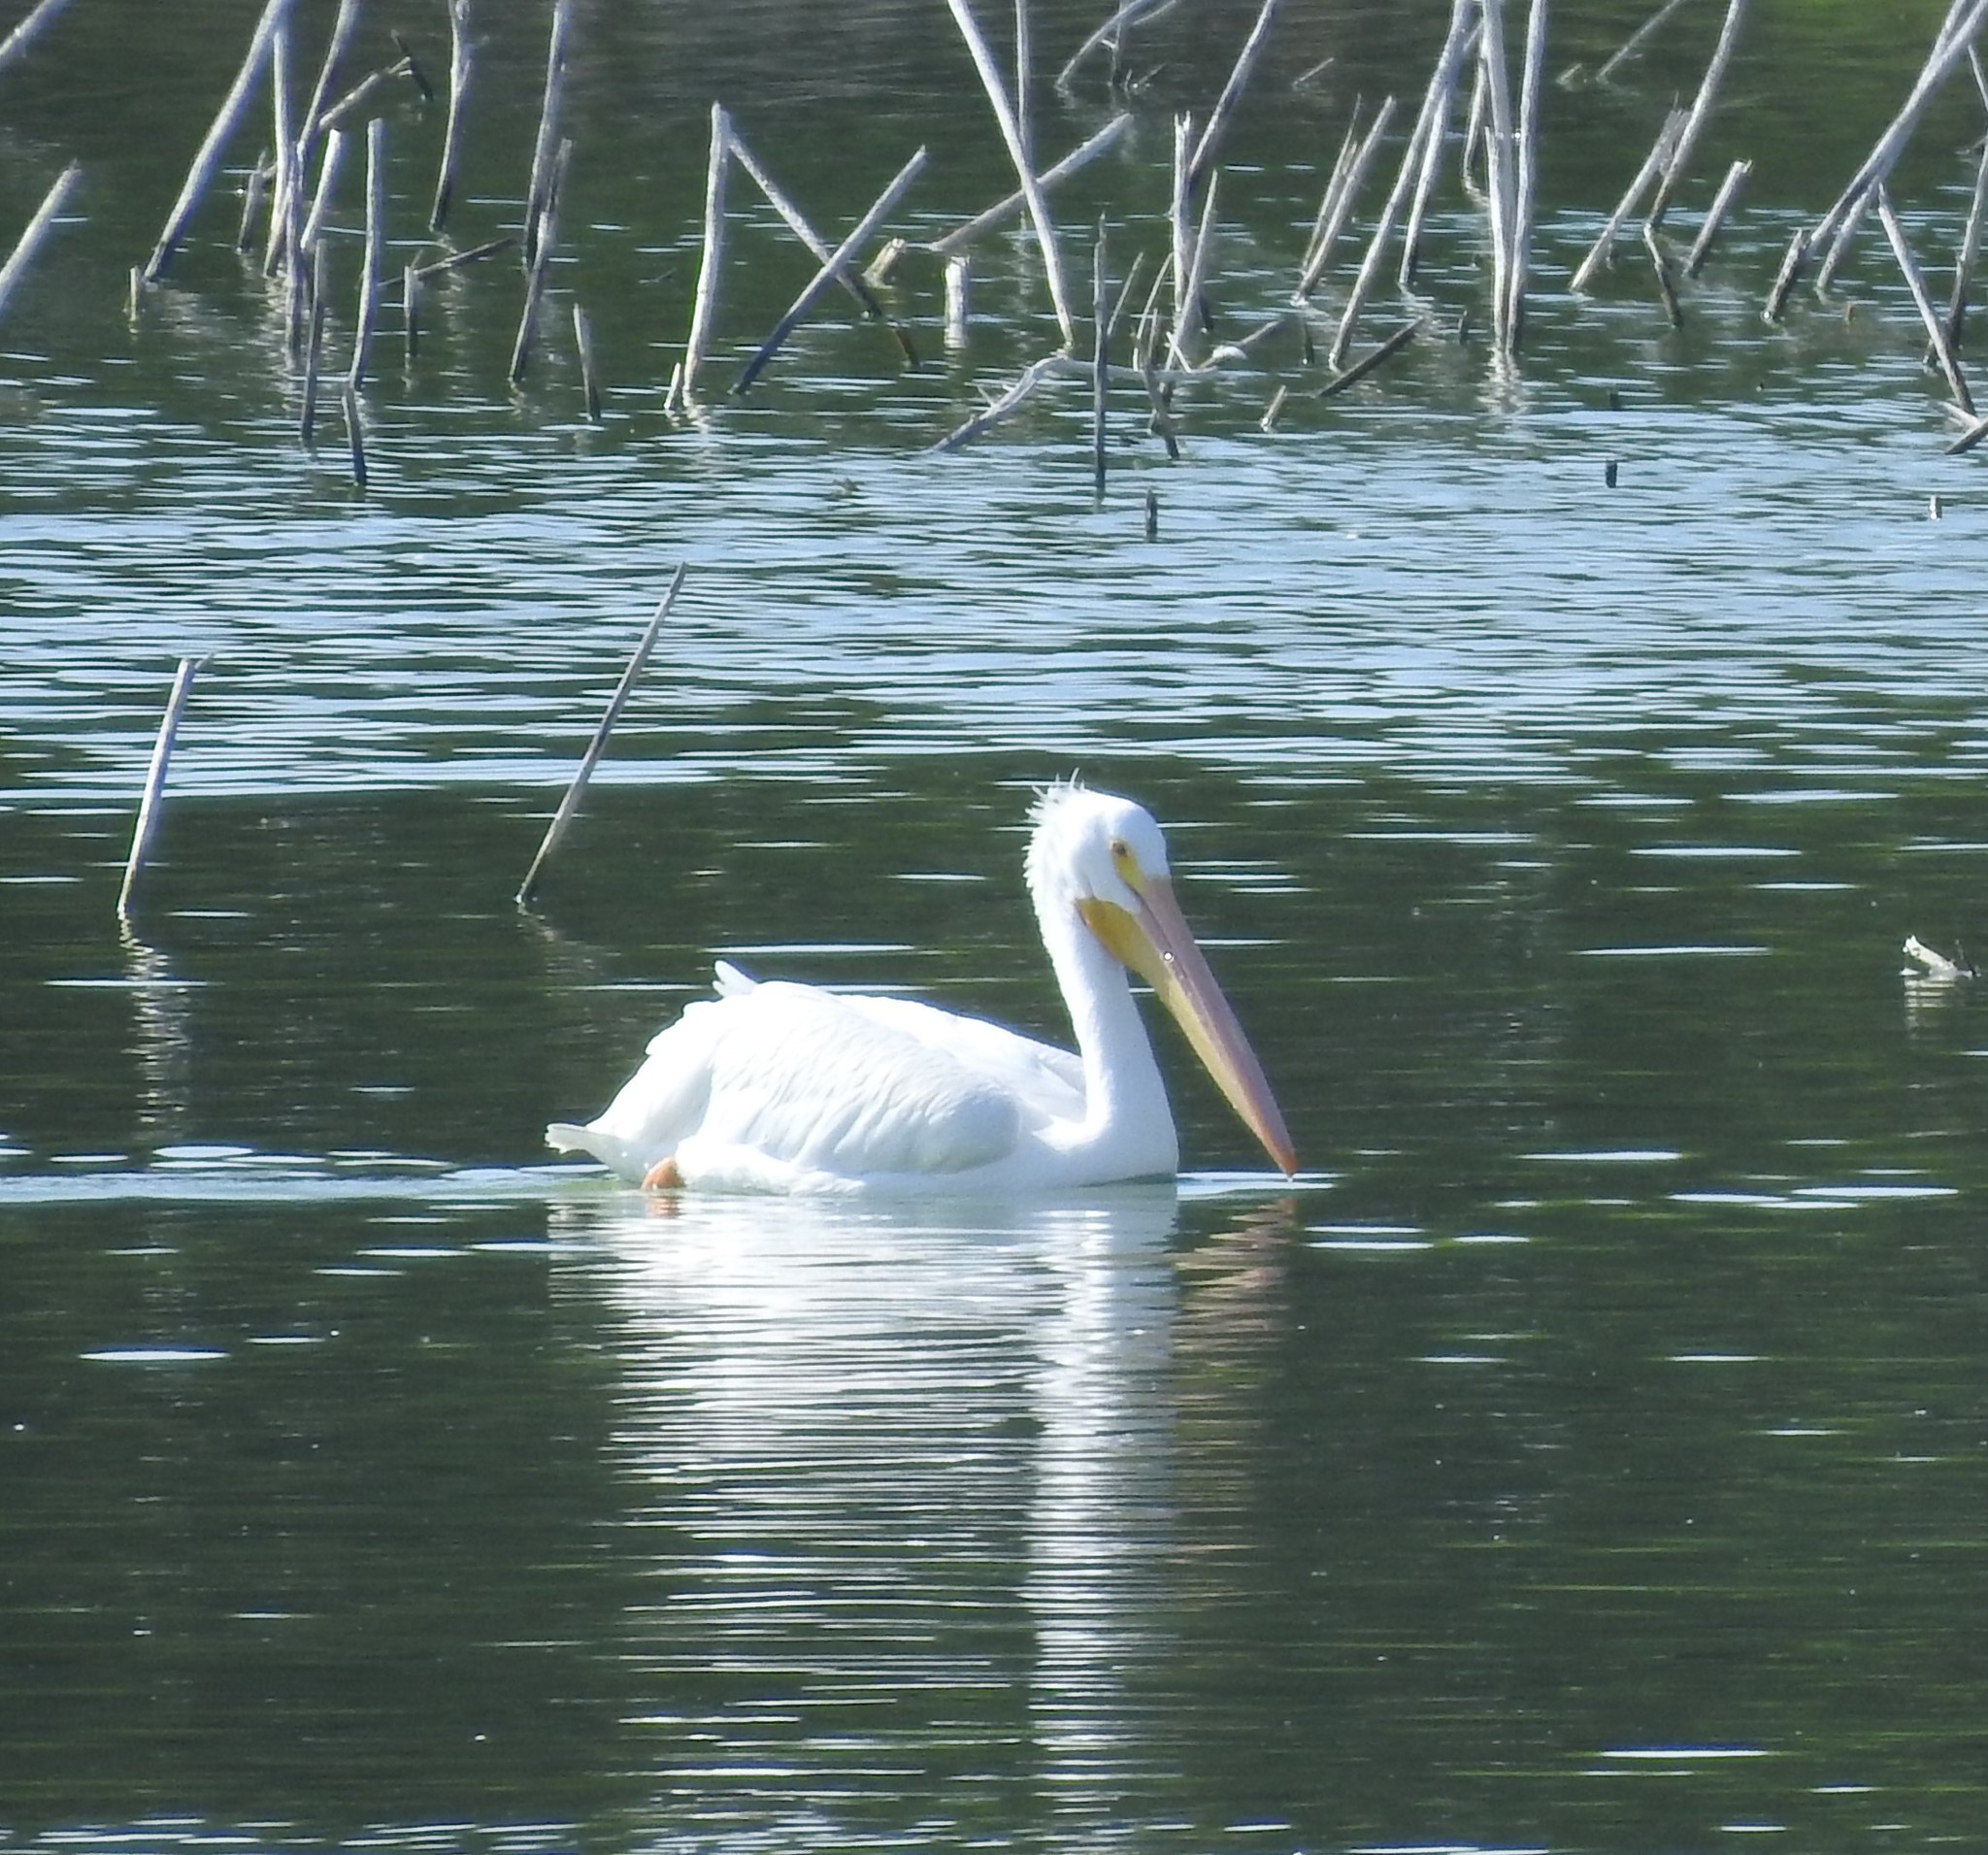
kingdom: Animalia
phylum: Chordata
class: Aves
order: Pelecaniformes
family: Pelecanidae
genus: Pelecanus
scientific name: Pelecanus erythrorhynchos
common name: American white pelican
